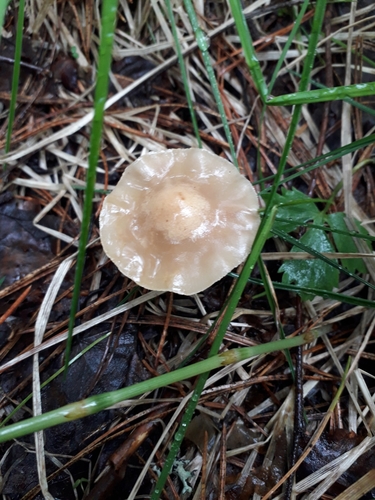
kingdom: Fungi
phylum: Basidiomycota
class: Agaricomycetes
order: Agaricales
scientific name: Agaricales
